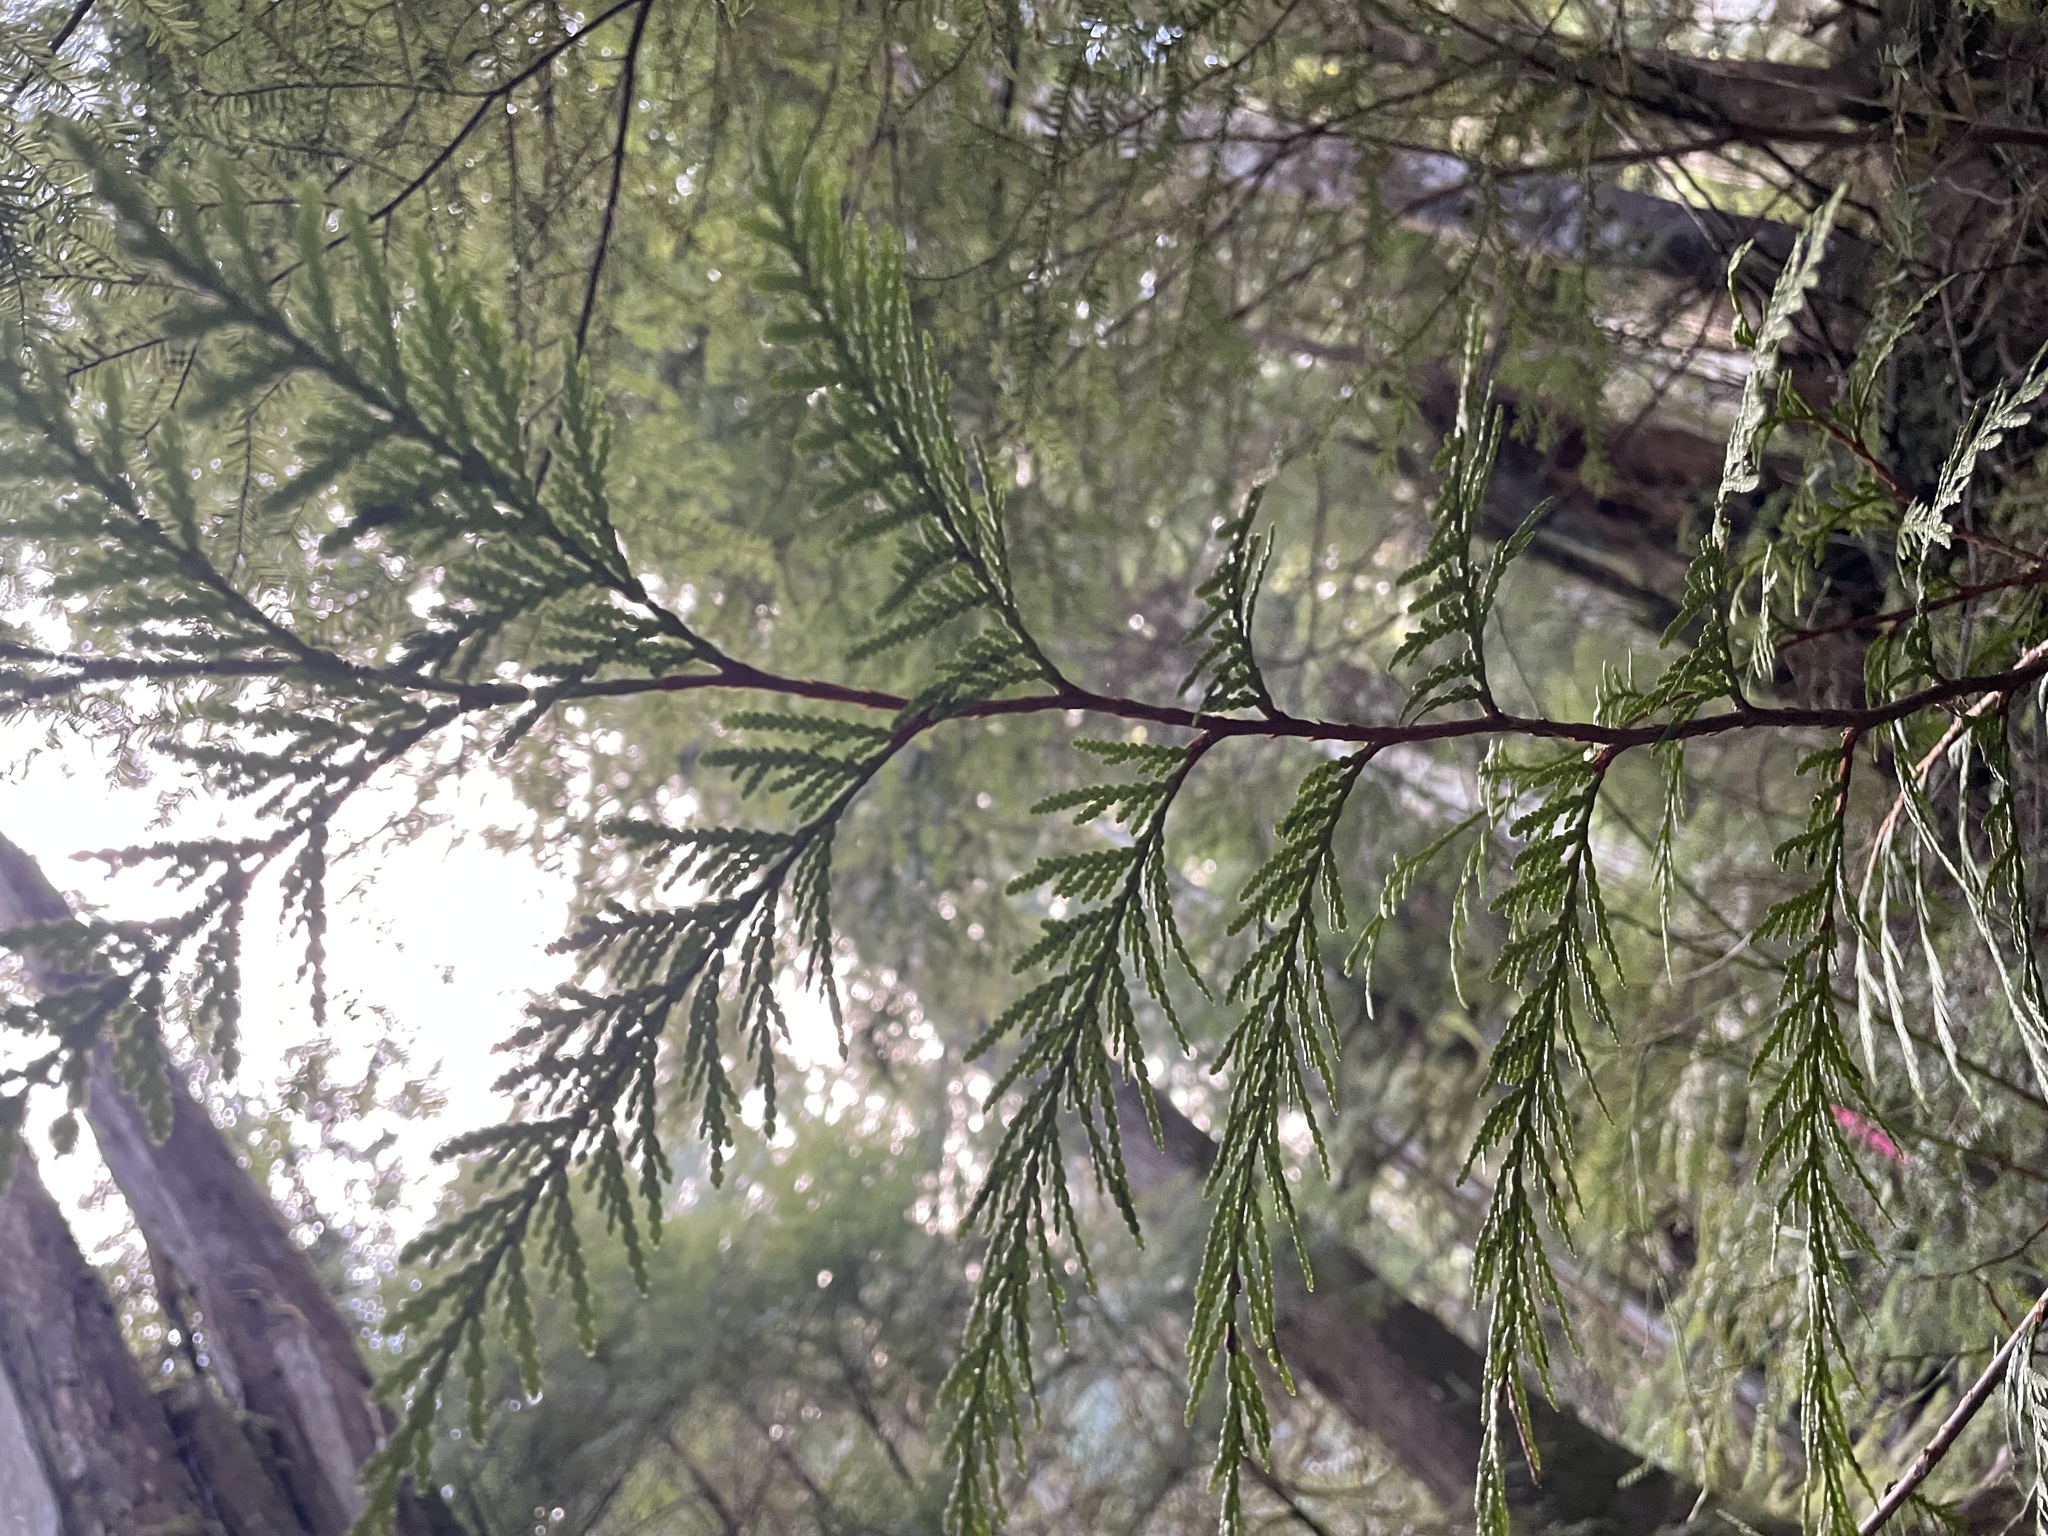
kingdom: Plantae
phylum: Tracheophyta
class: Pinopsida
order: Pinales
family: Cupressaceae
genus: Thuja
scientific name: Thuja plicata
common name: Western red-cedar
